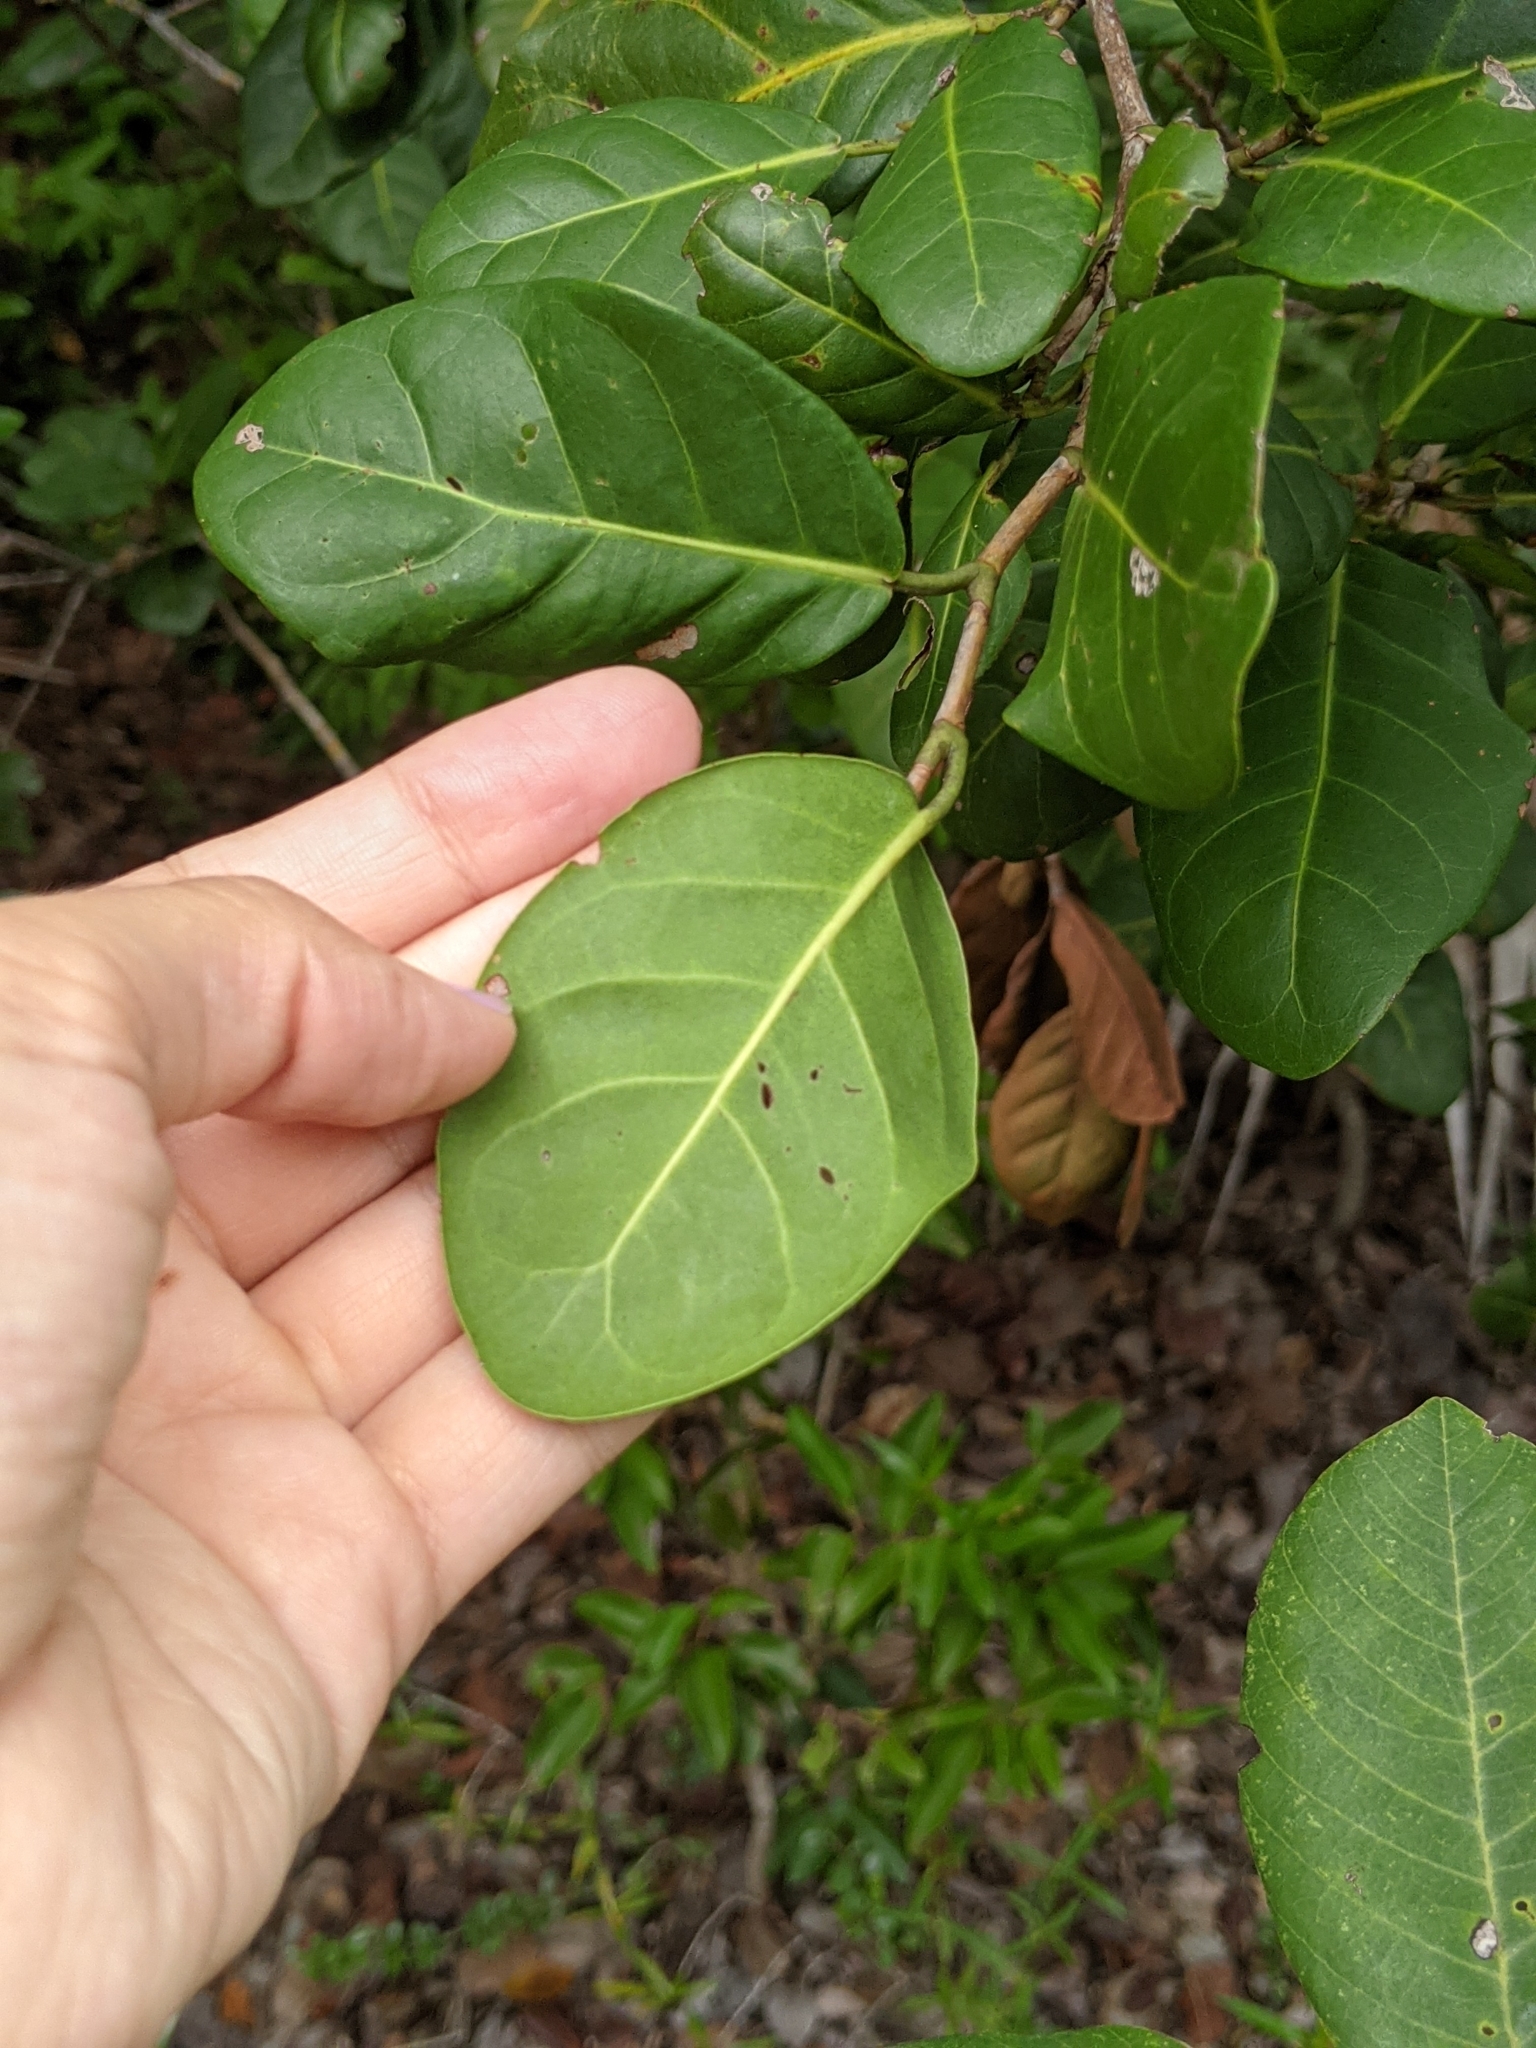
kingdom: Plantae
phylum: Tracheophyta
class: Magnoliopsida
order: Caryophyllales
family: Polygonaceae
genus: Coccoloba
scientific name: Coccoloba diversifolia
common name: Pigeon-plum
